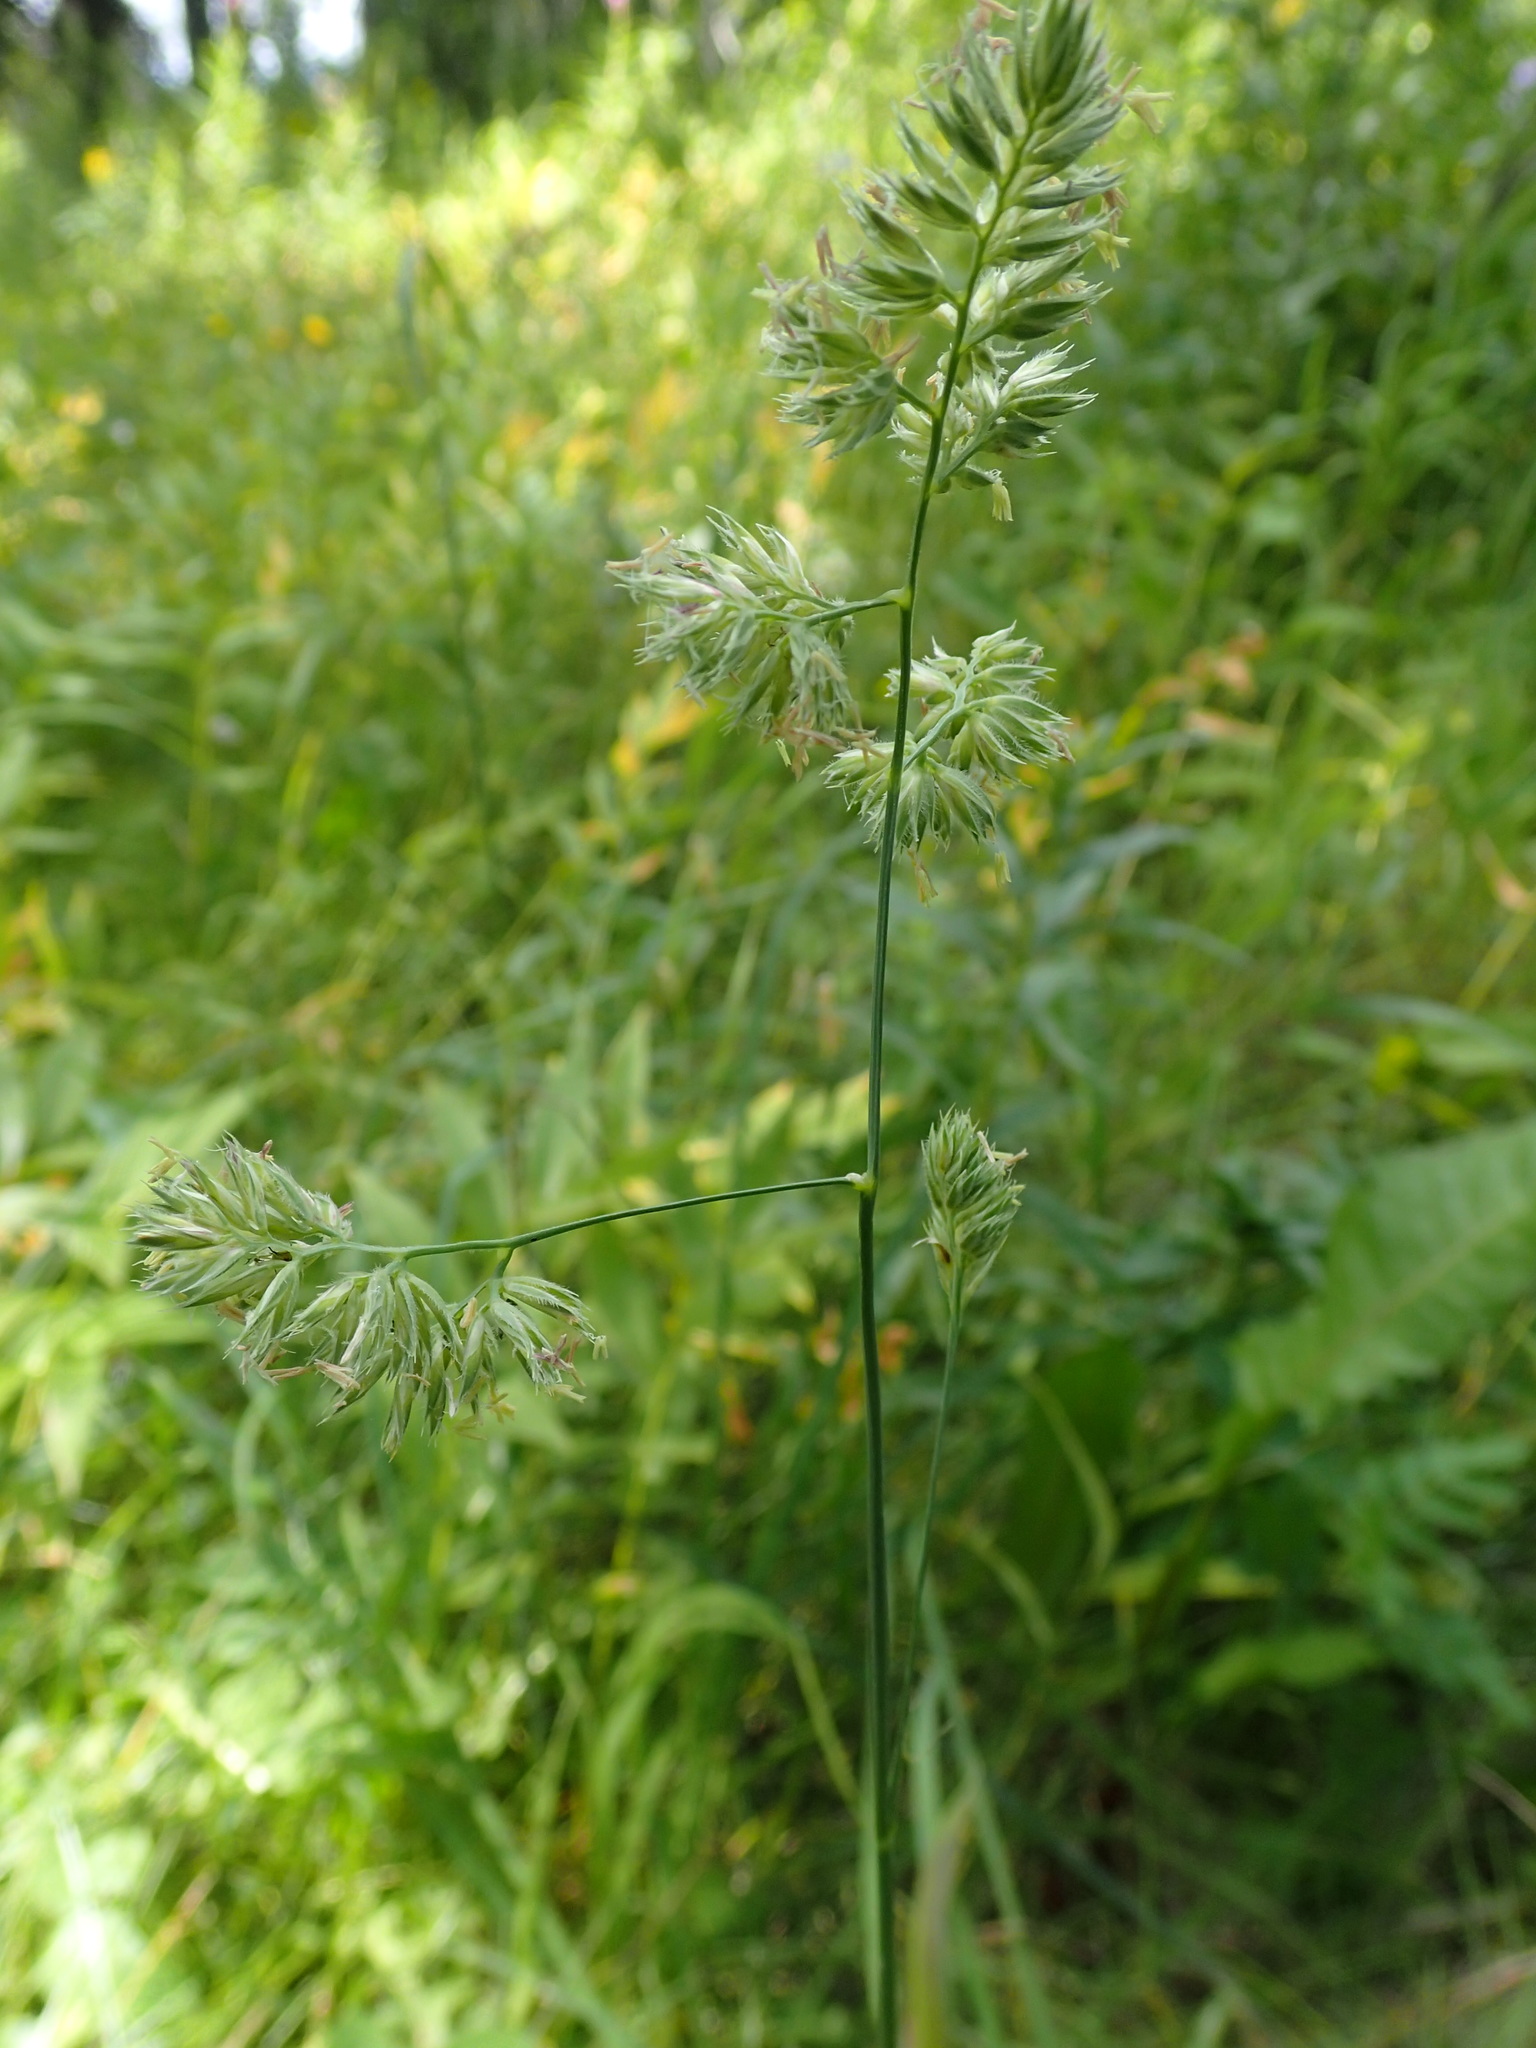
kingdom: Plantae
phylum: Tracheophyta
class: Liliopsida
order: Poales
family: Poaceae
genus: Dactylis
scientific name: Dactylis glomerata
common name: Orchardgrass
